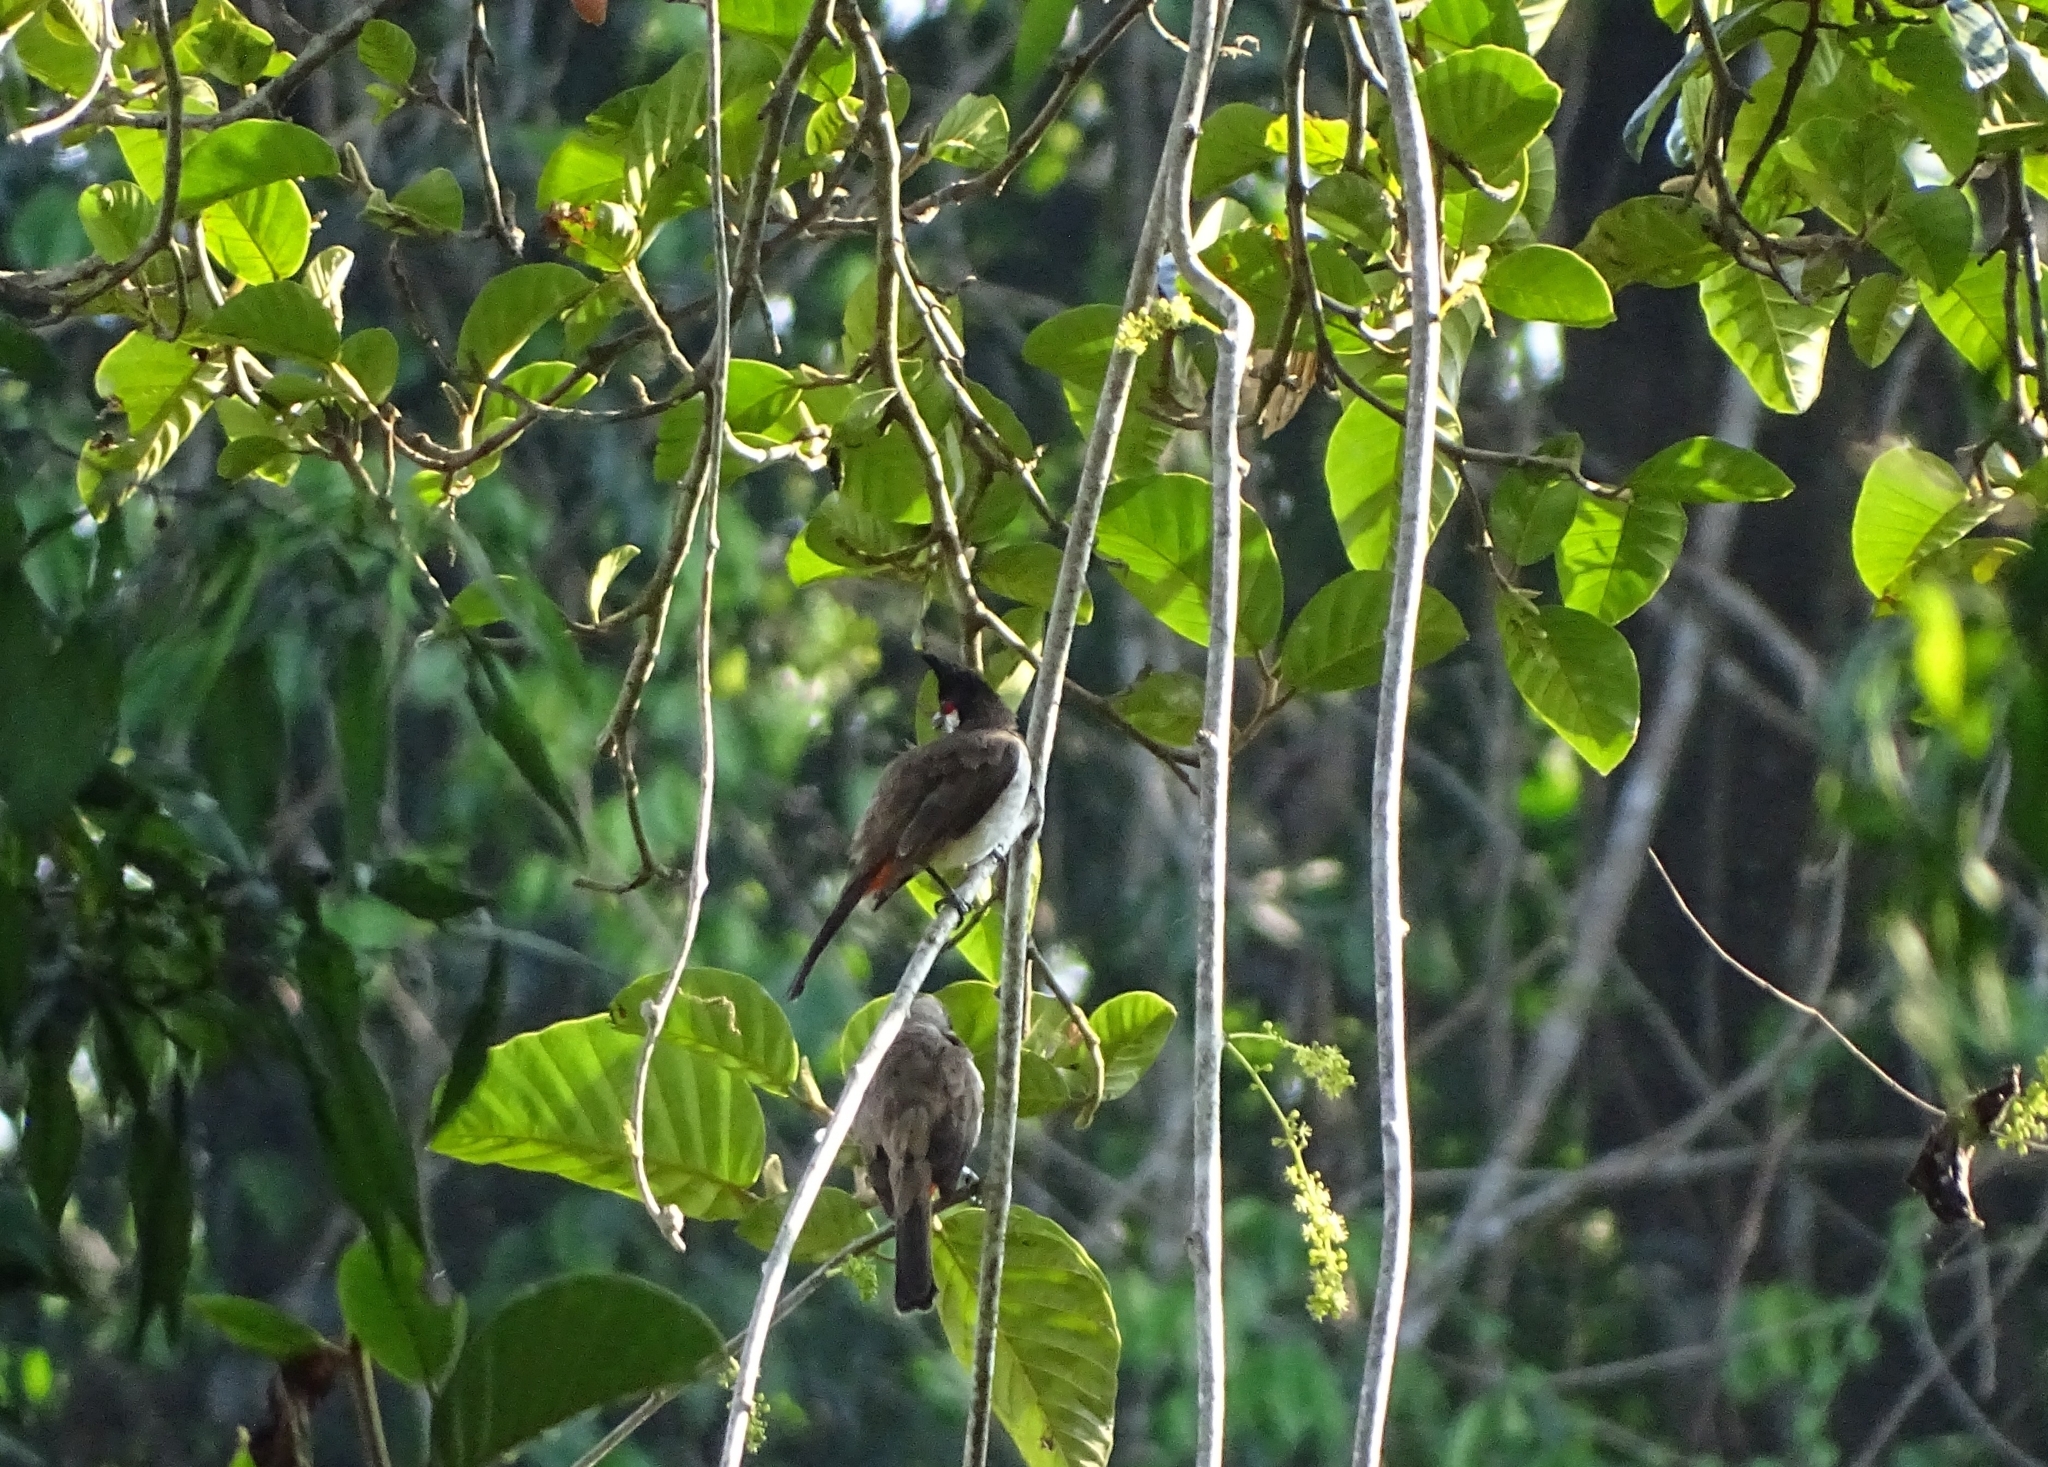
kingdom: Animalia
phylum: Chordata
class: Aves
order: Passeriformes
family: Pycnonotidae
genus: Pycnonotus
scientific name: Pycnonotus jocosus
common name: Red-whiskered bulbul
